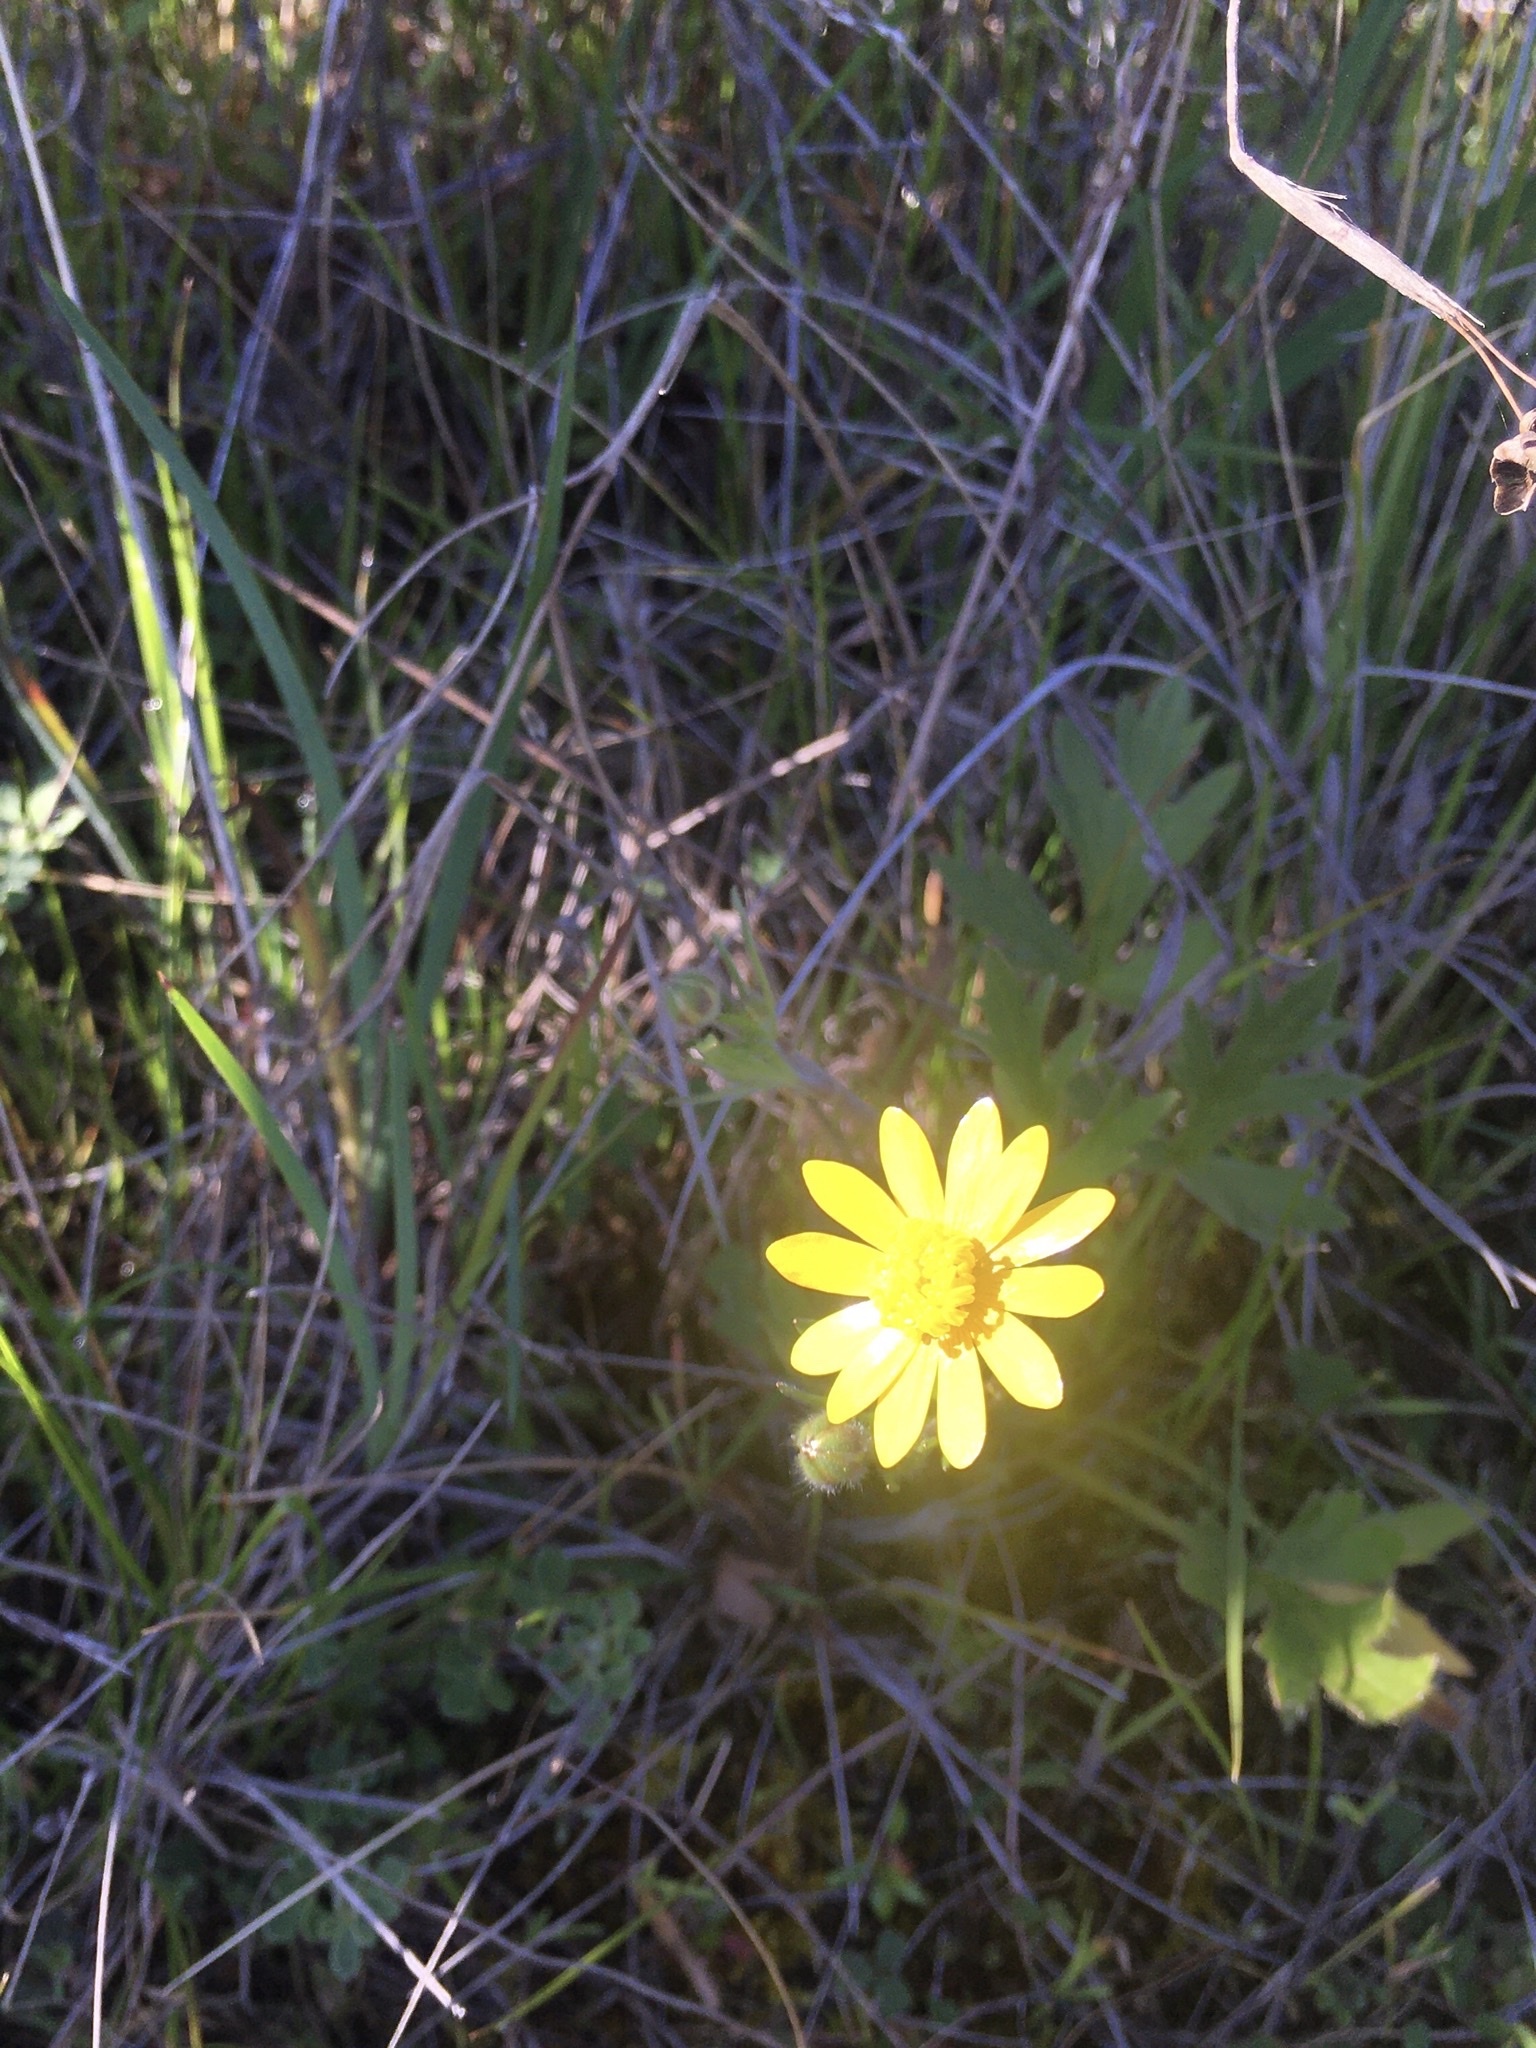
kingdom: Plantae
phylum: Tracheophyta
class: Magnoliopsida
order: Ranunculales
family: Ranunculaceae
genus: Ranunculus
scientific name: Ranunculus californicus
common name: California buttercup
